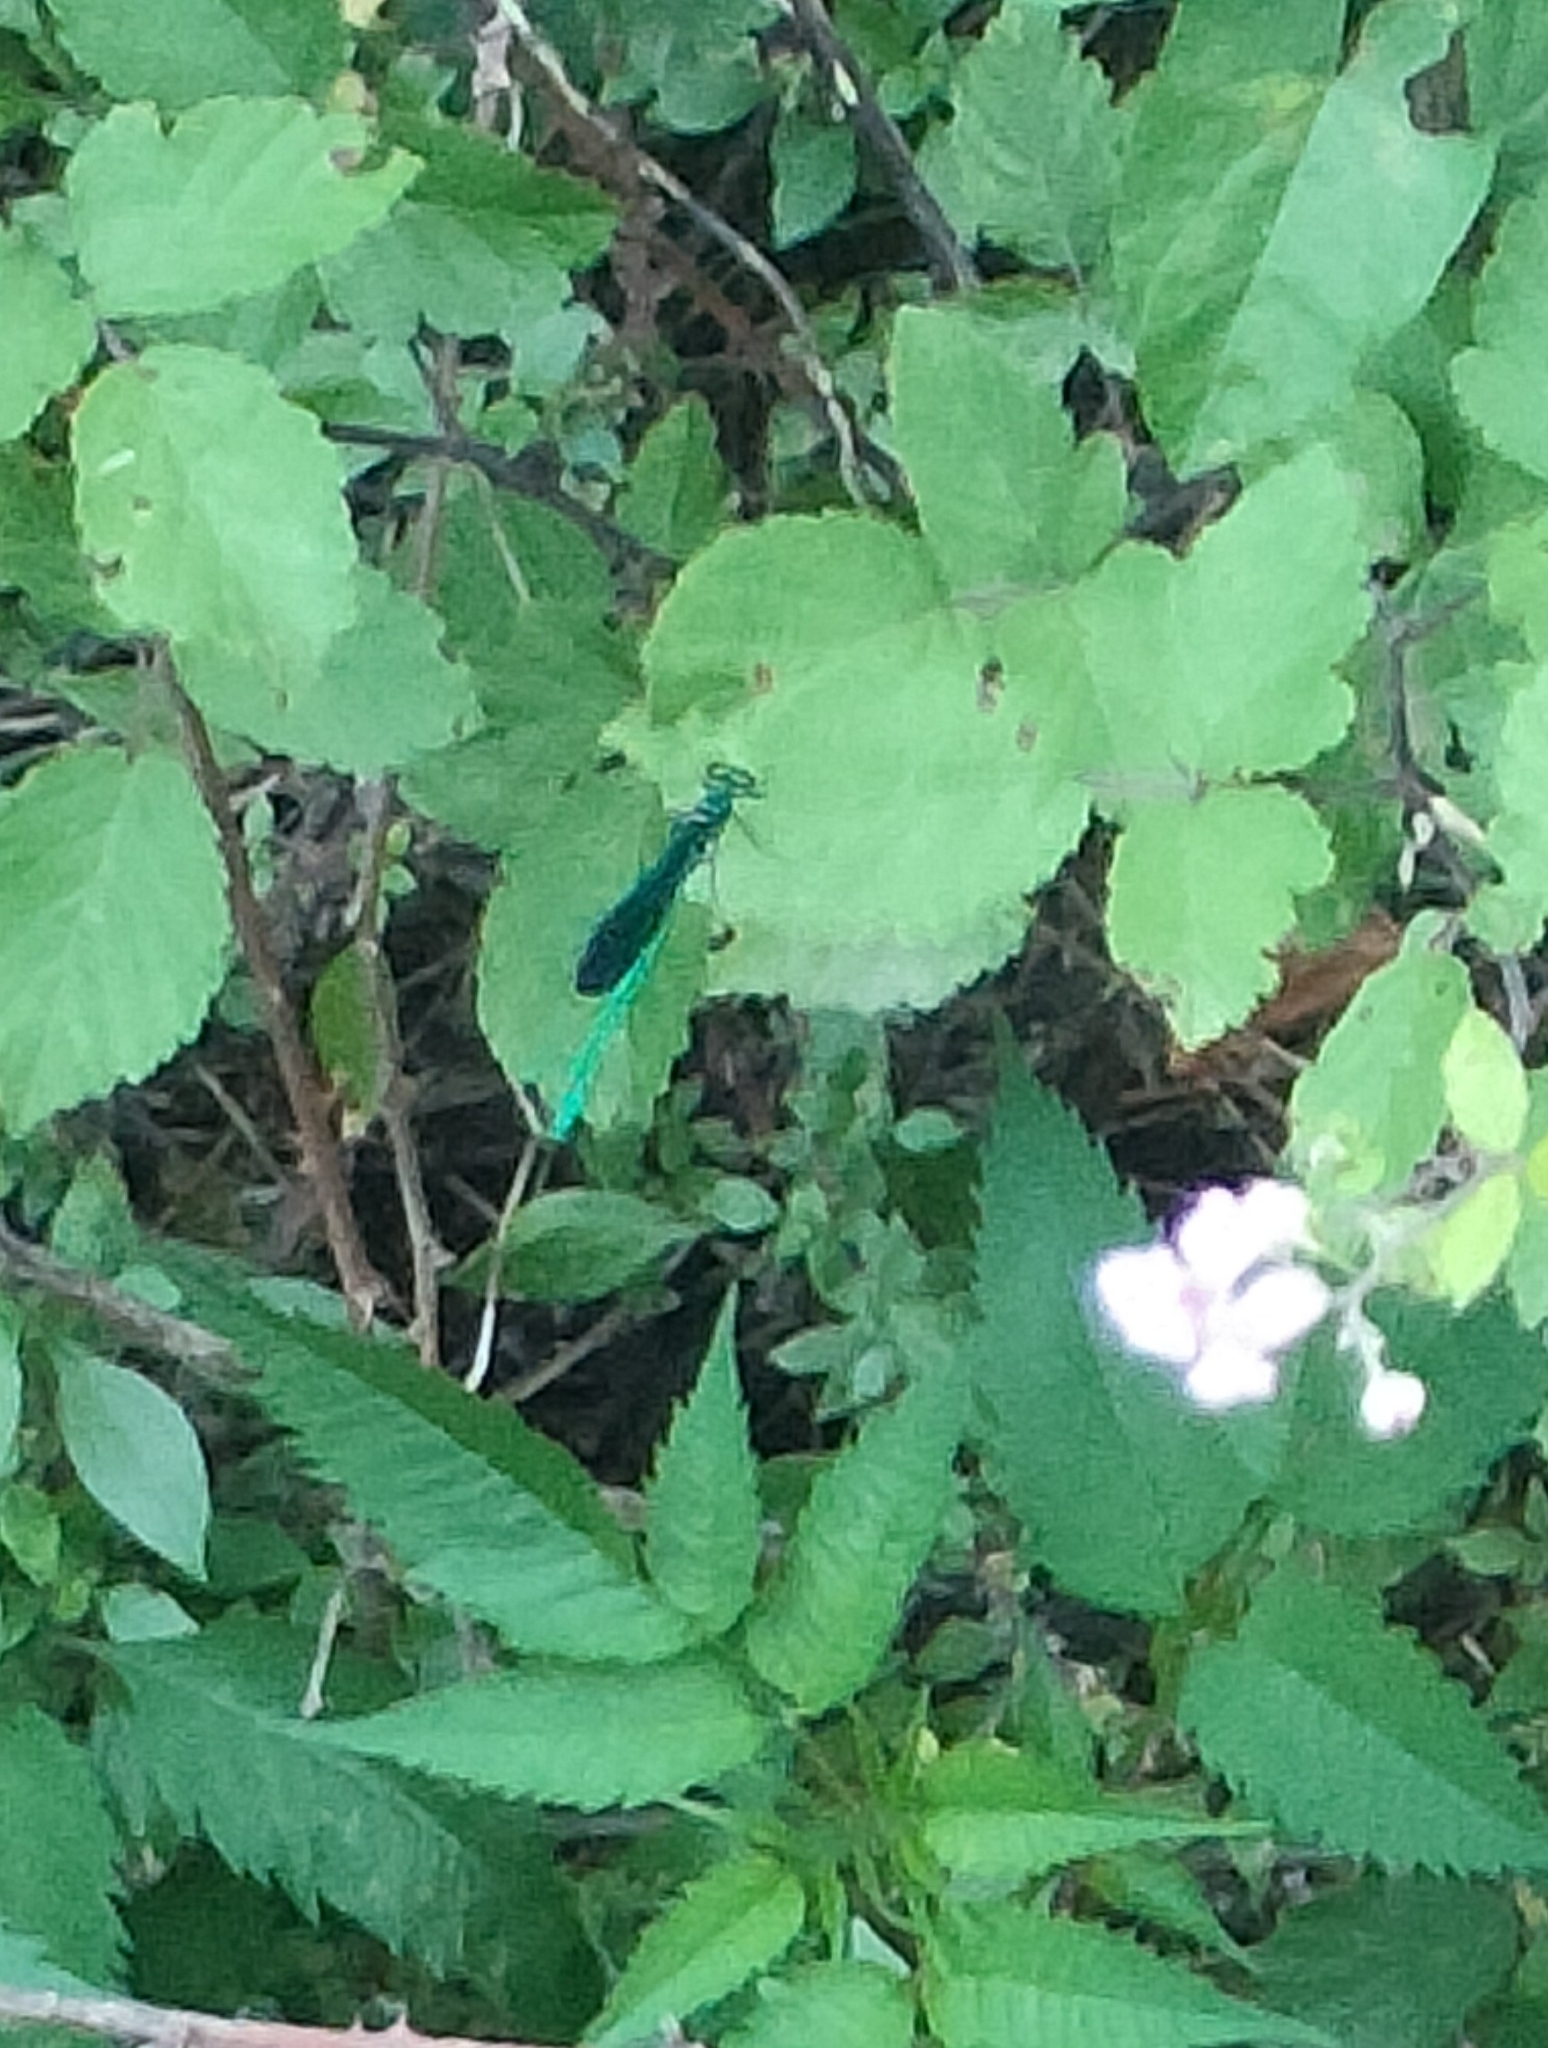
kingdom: Animalia
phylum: Arthropoda
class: Insecta
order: Odonata
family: Calopterygidae
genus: Calopteryx
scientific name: Calopteryx virgo
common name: Beautiful demoiselle
